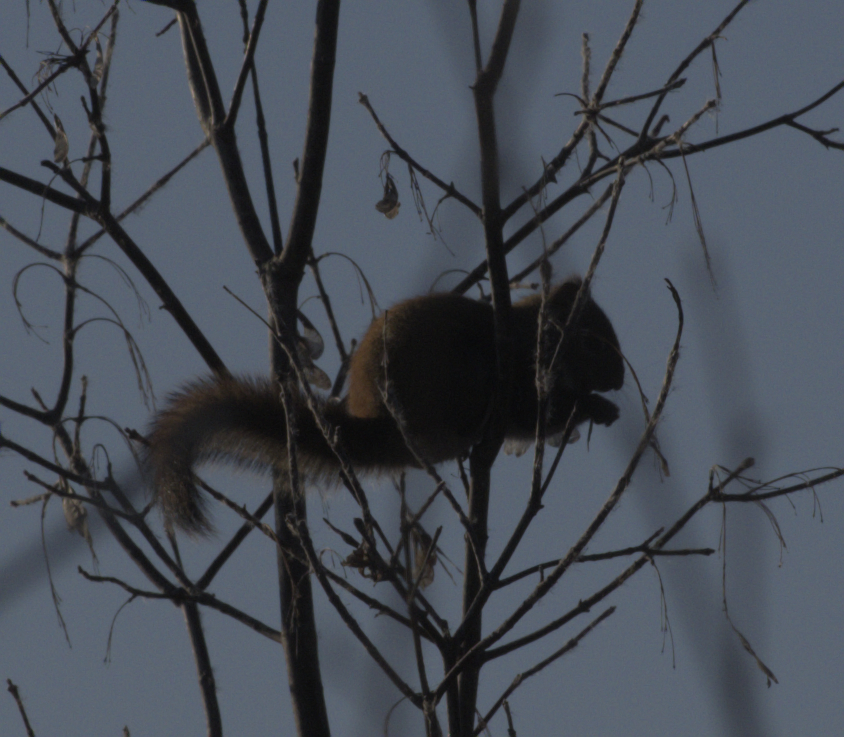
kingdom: Animalia
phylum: Chordata
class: Mammalia
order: Rodentia
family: Sciuridae
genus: Tamiasciurus
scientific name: Tamiasciurus hudsonicus
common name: Red squirrel
